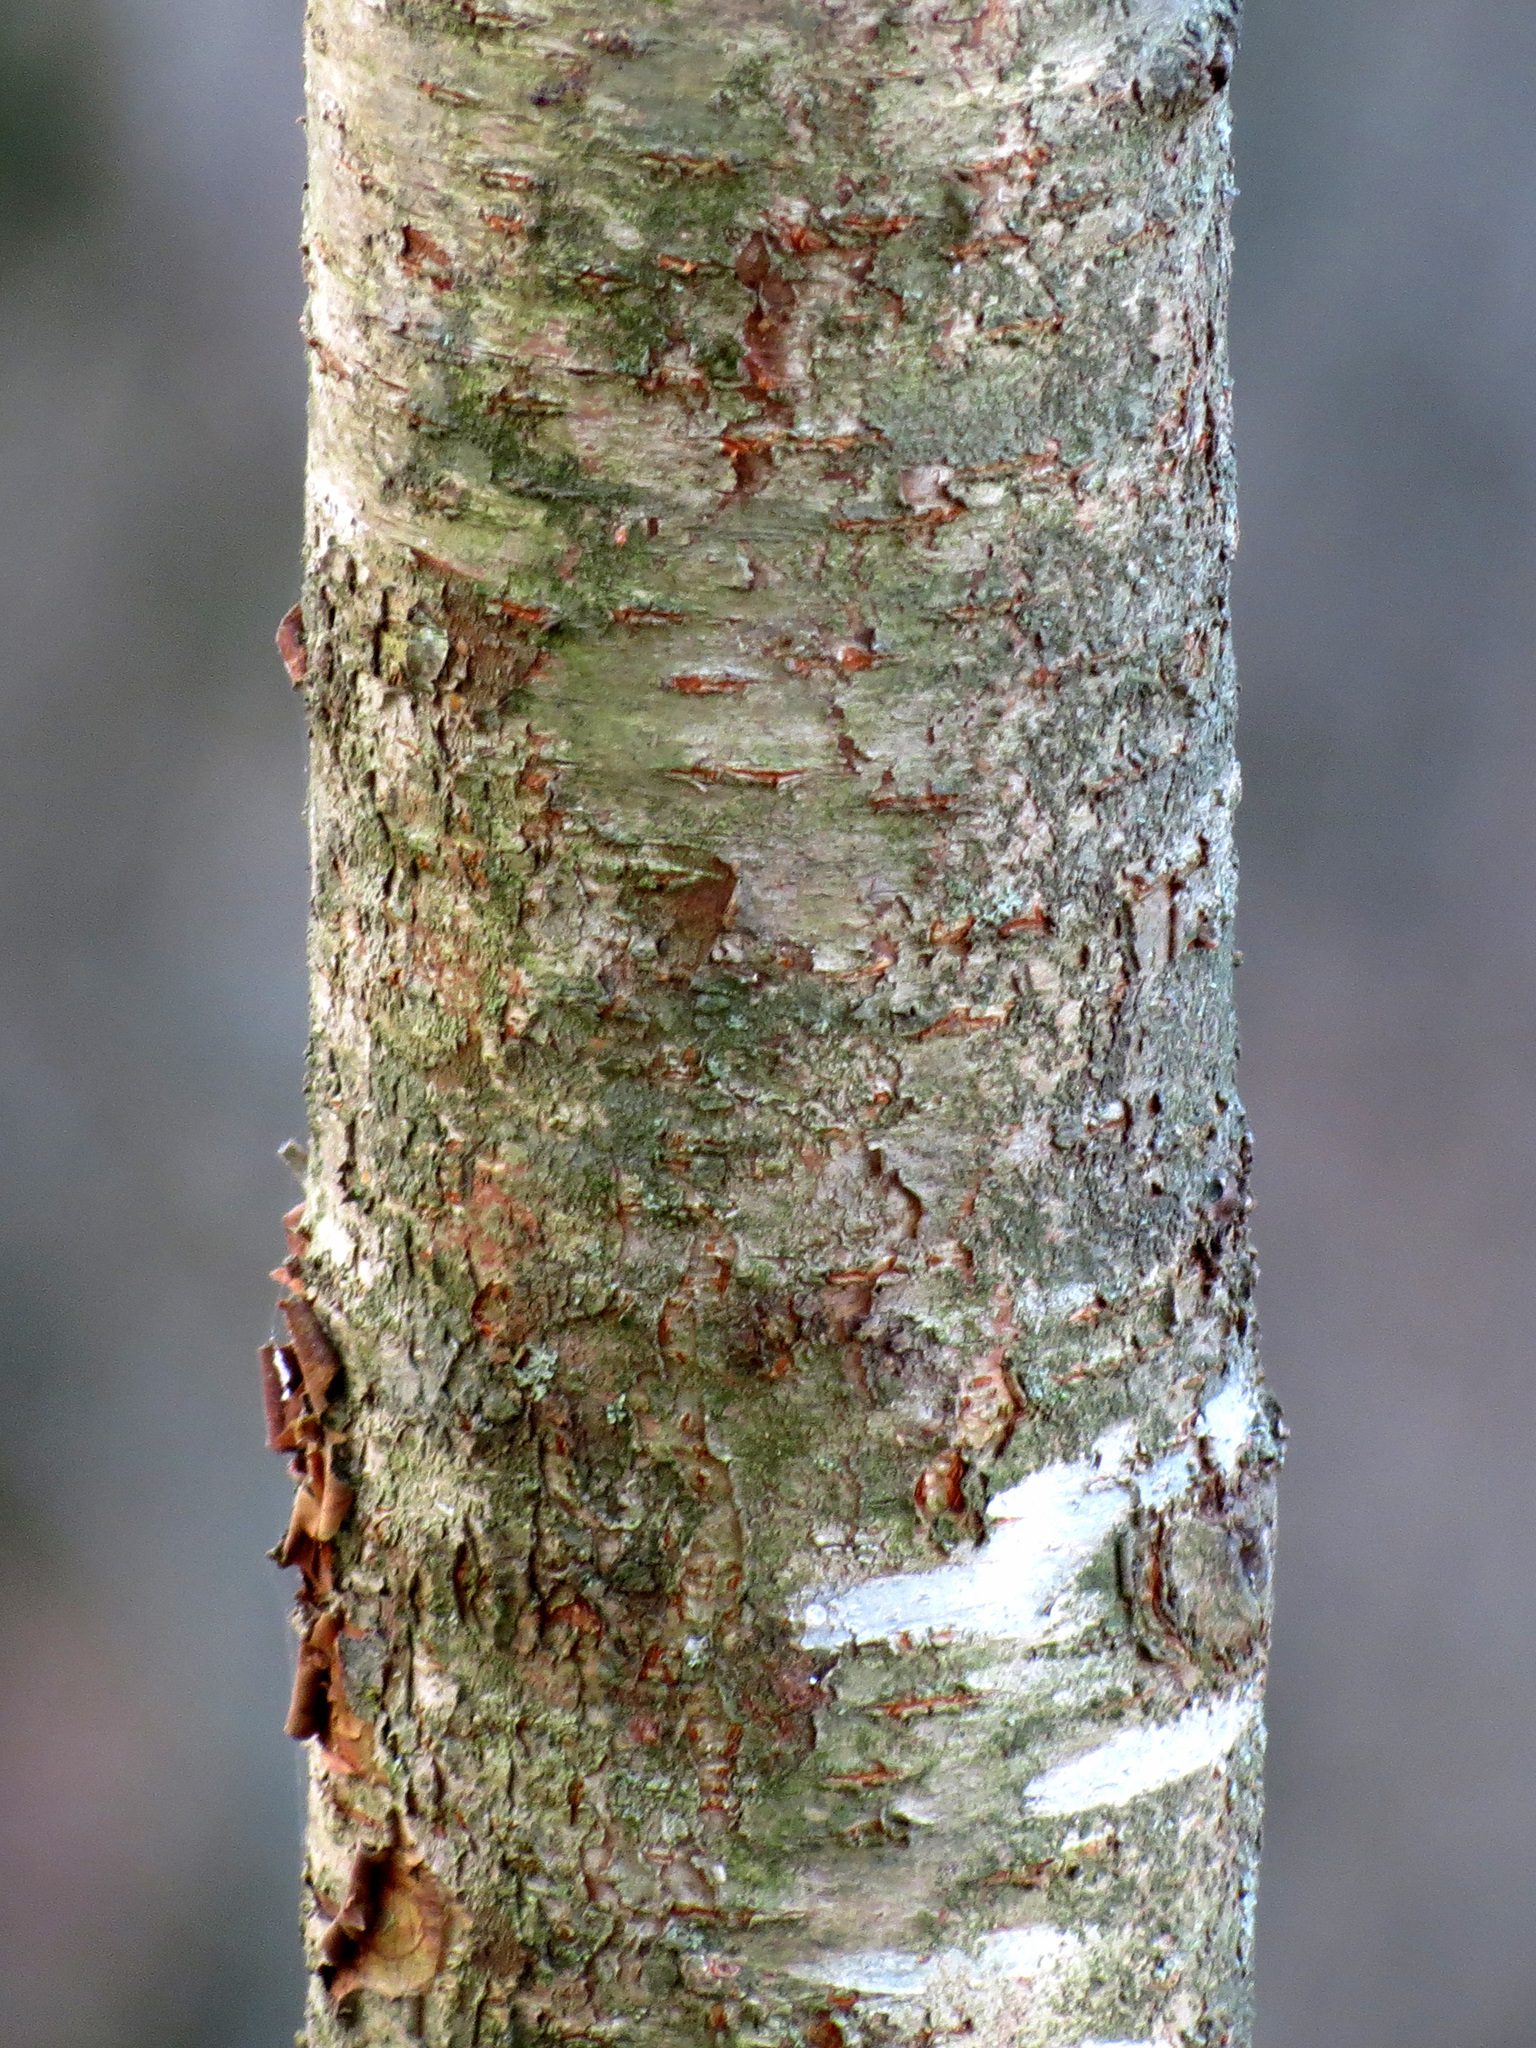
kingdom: Plantae
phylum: Tracheophyta
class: Magnoliopsida
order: Rosales
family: Rosaceae
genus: Prunus
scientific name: Prunus serotina
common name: Black cherry
